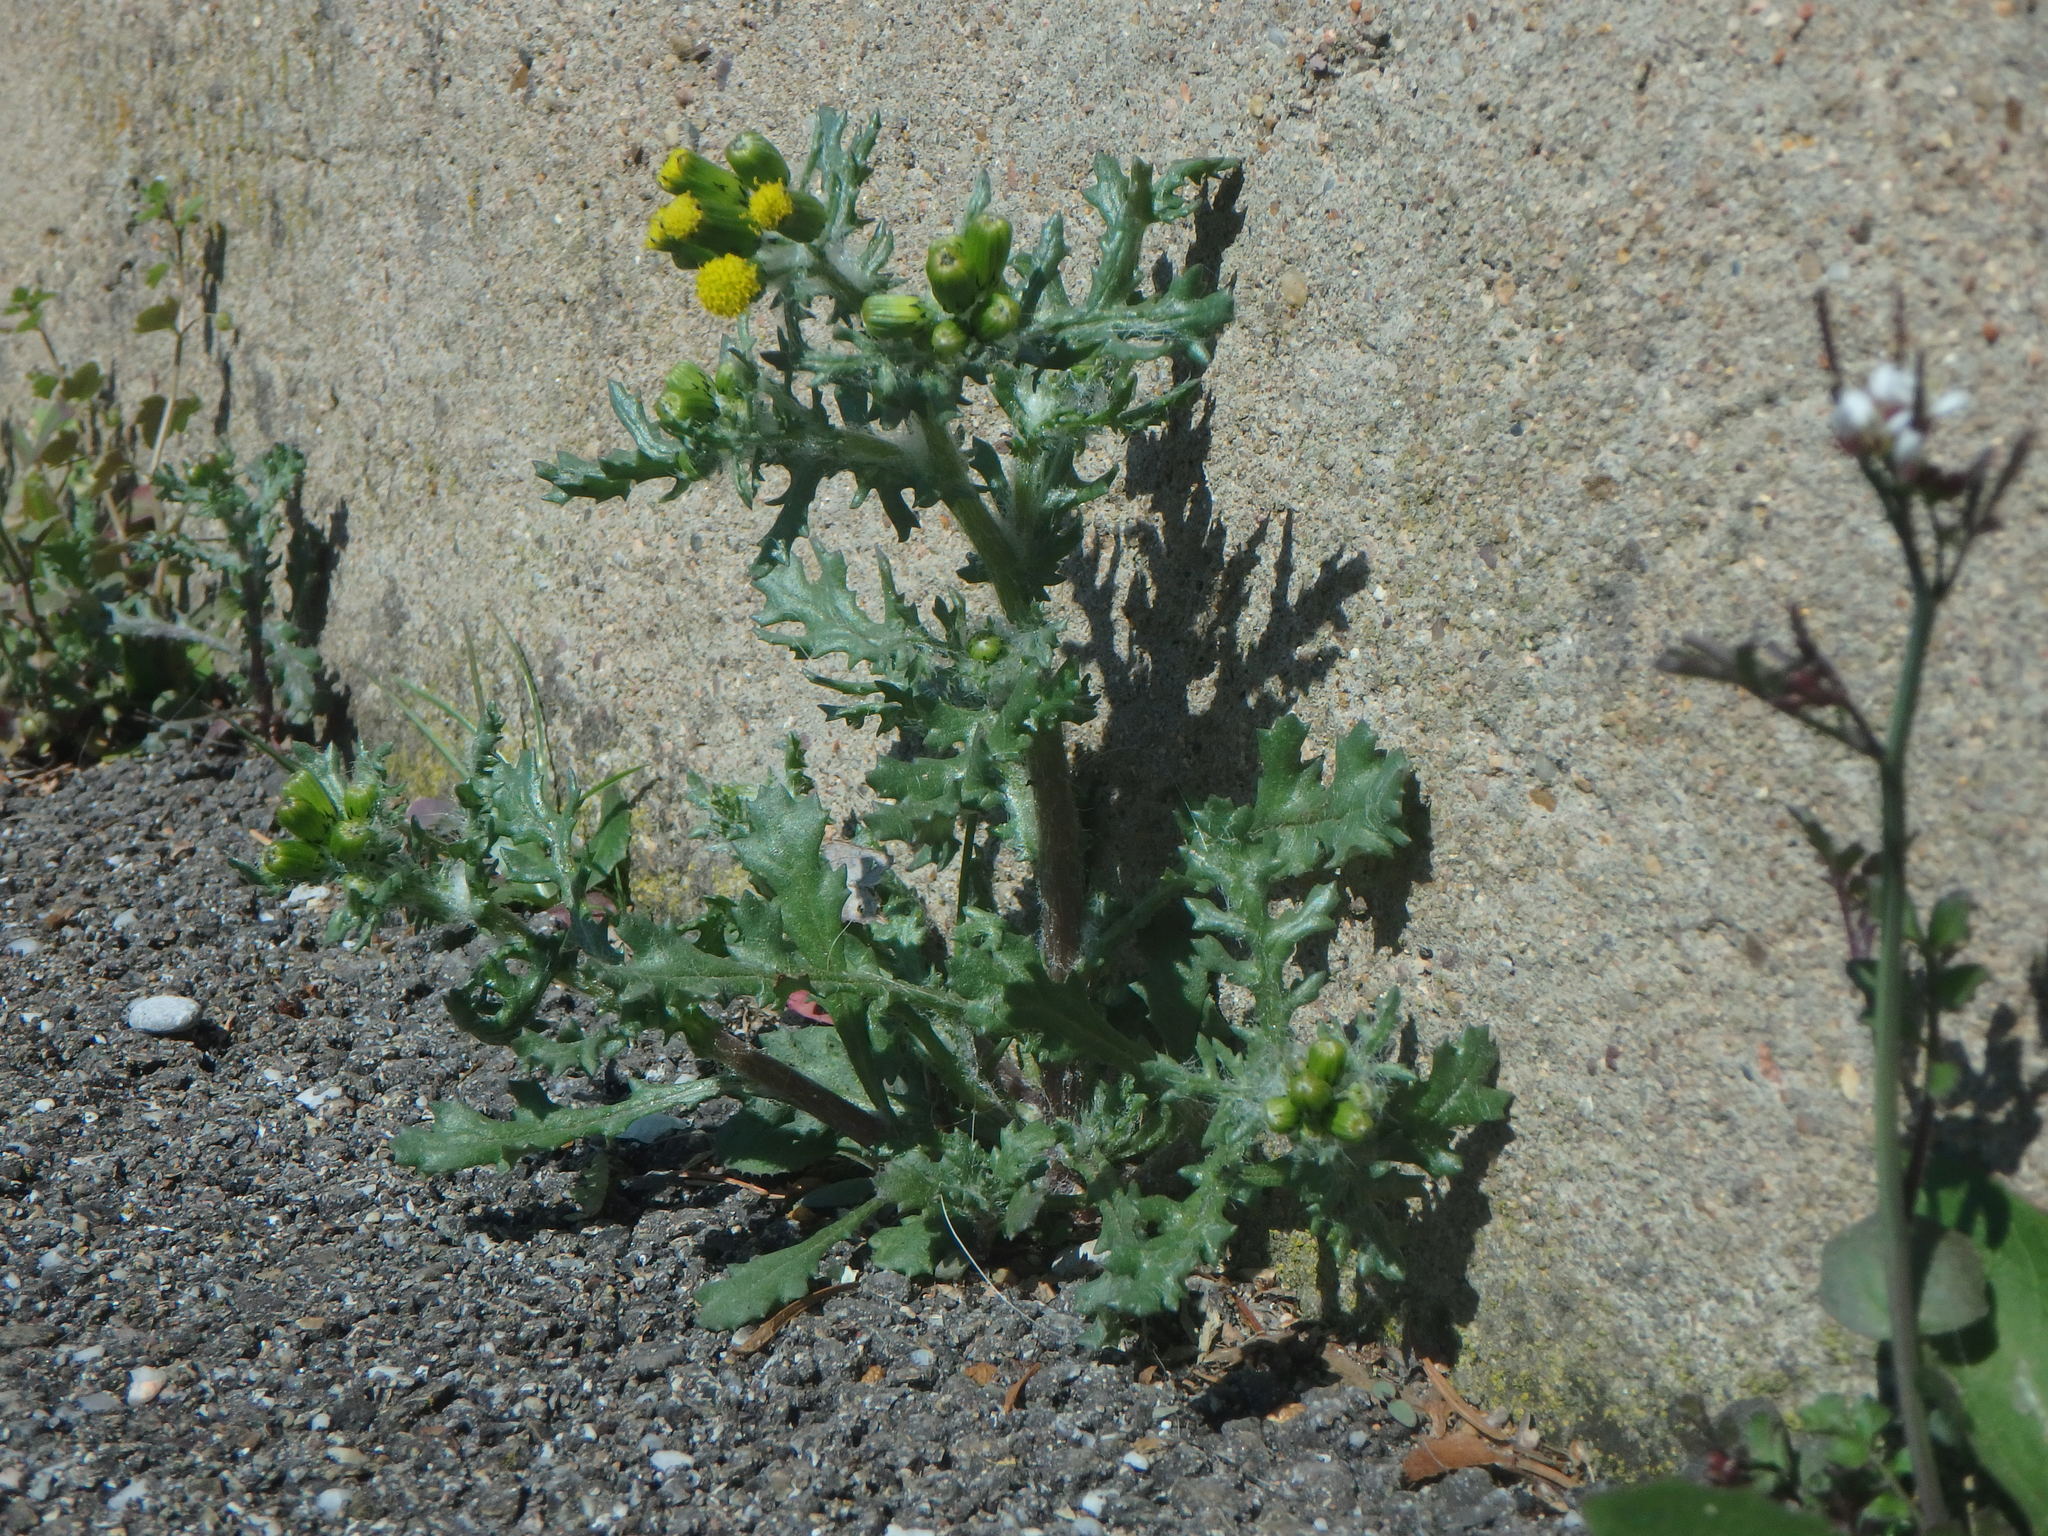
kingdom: Plantae
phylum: Tracheophyta
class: Magnoliopsida
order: Asterales
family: Asteraceae
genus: Senecio
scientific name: Senecio vulgaris
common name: Old-man-in-the-spring
